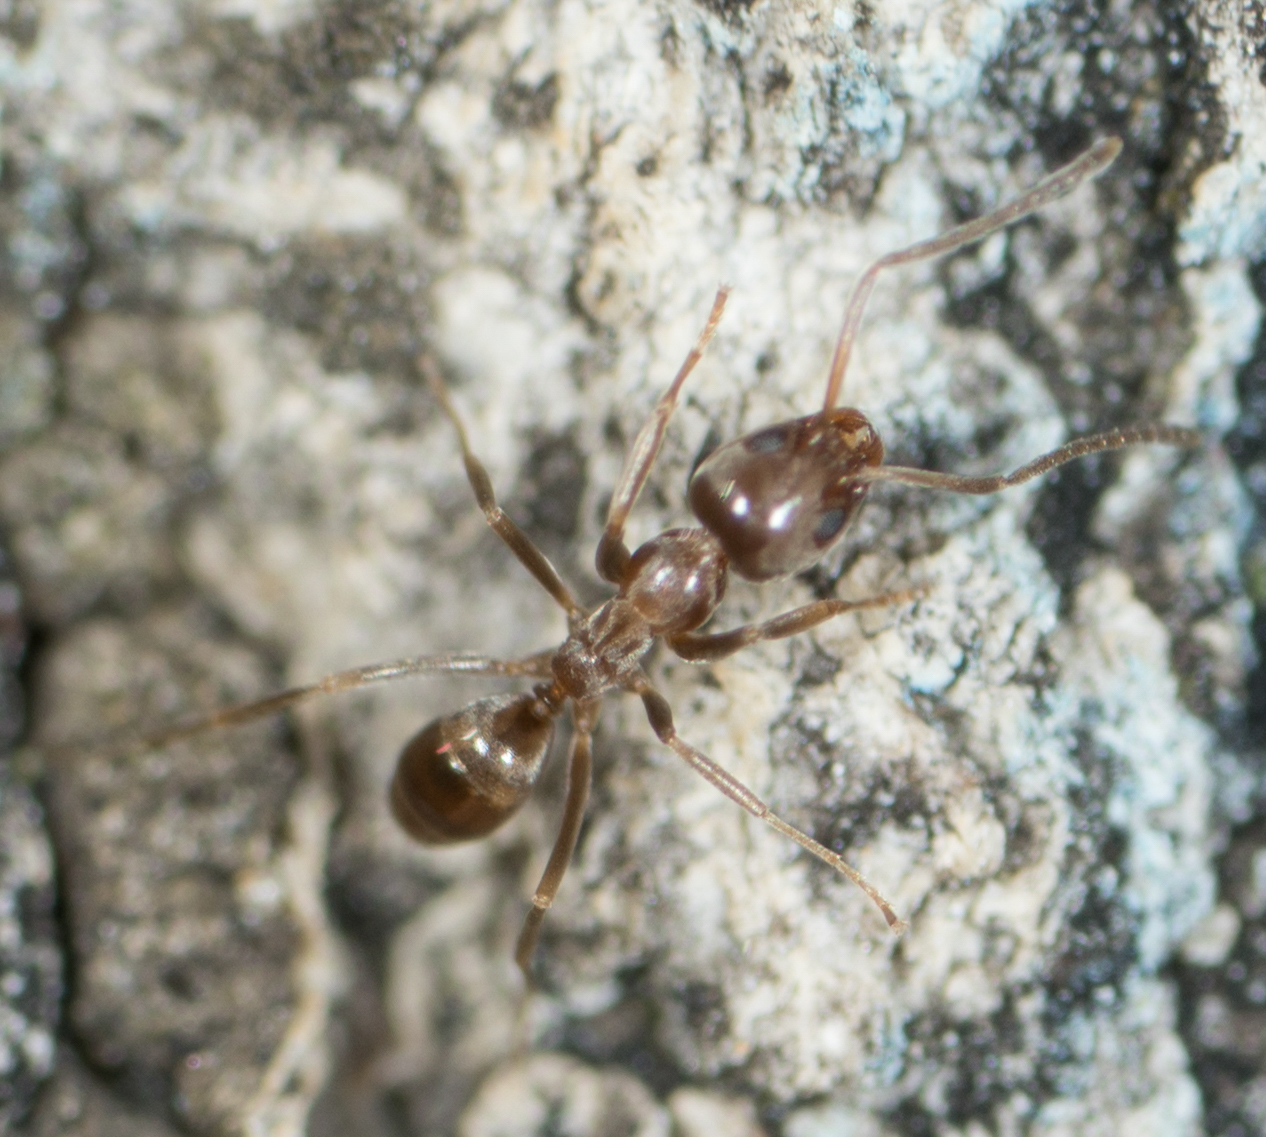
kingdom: Animalia
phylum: Arthropoda
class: Insecta
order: Hymenoptera
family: Formicidae
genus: Linepithema
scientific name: Linepithema humile
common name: Argentine ant
